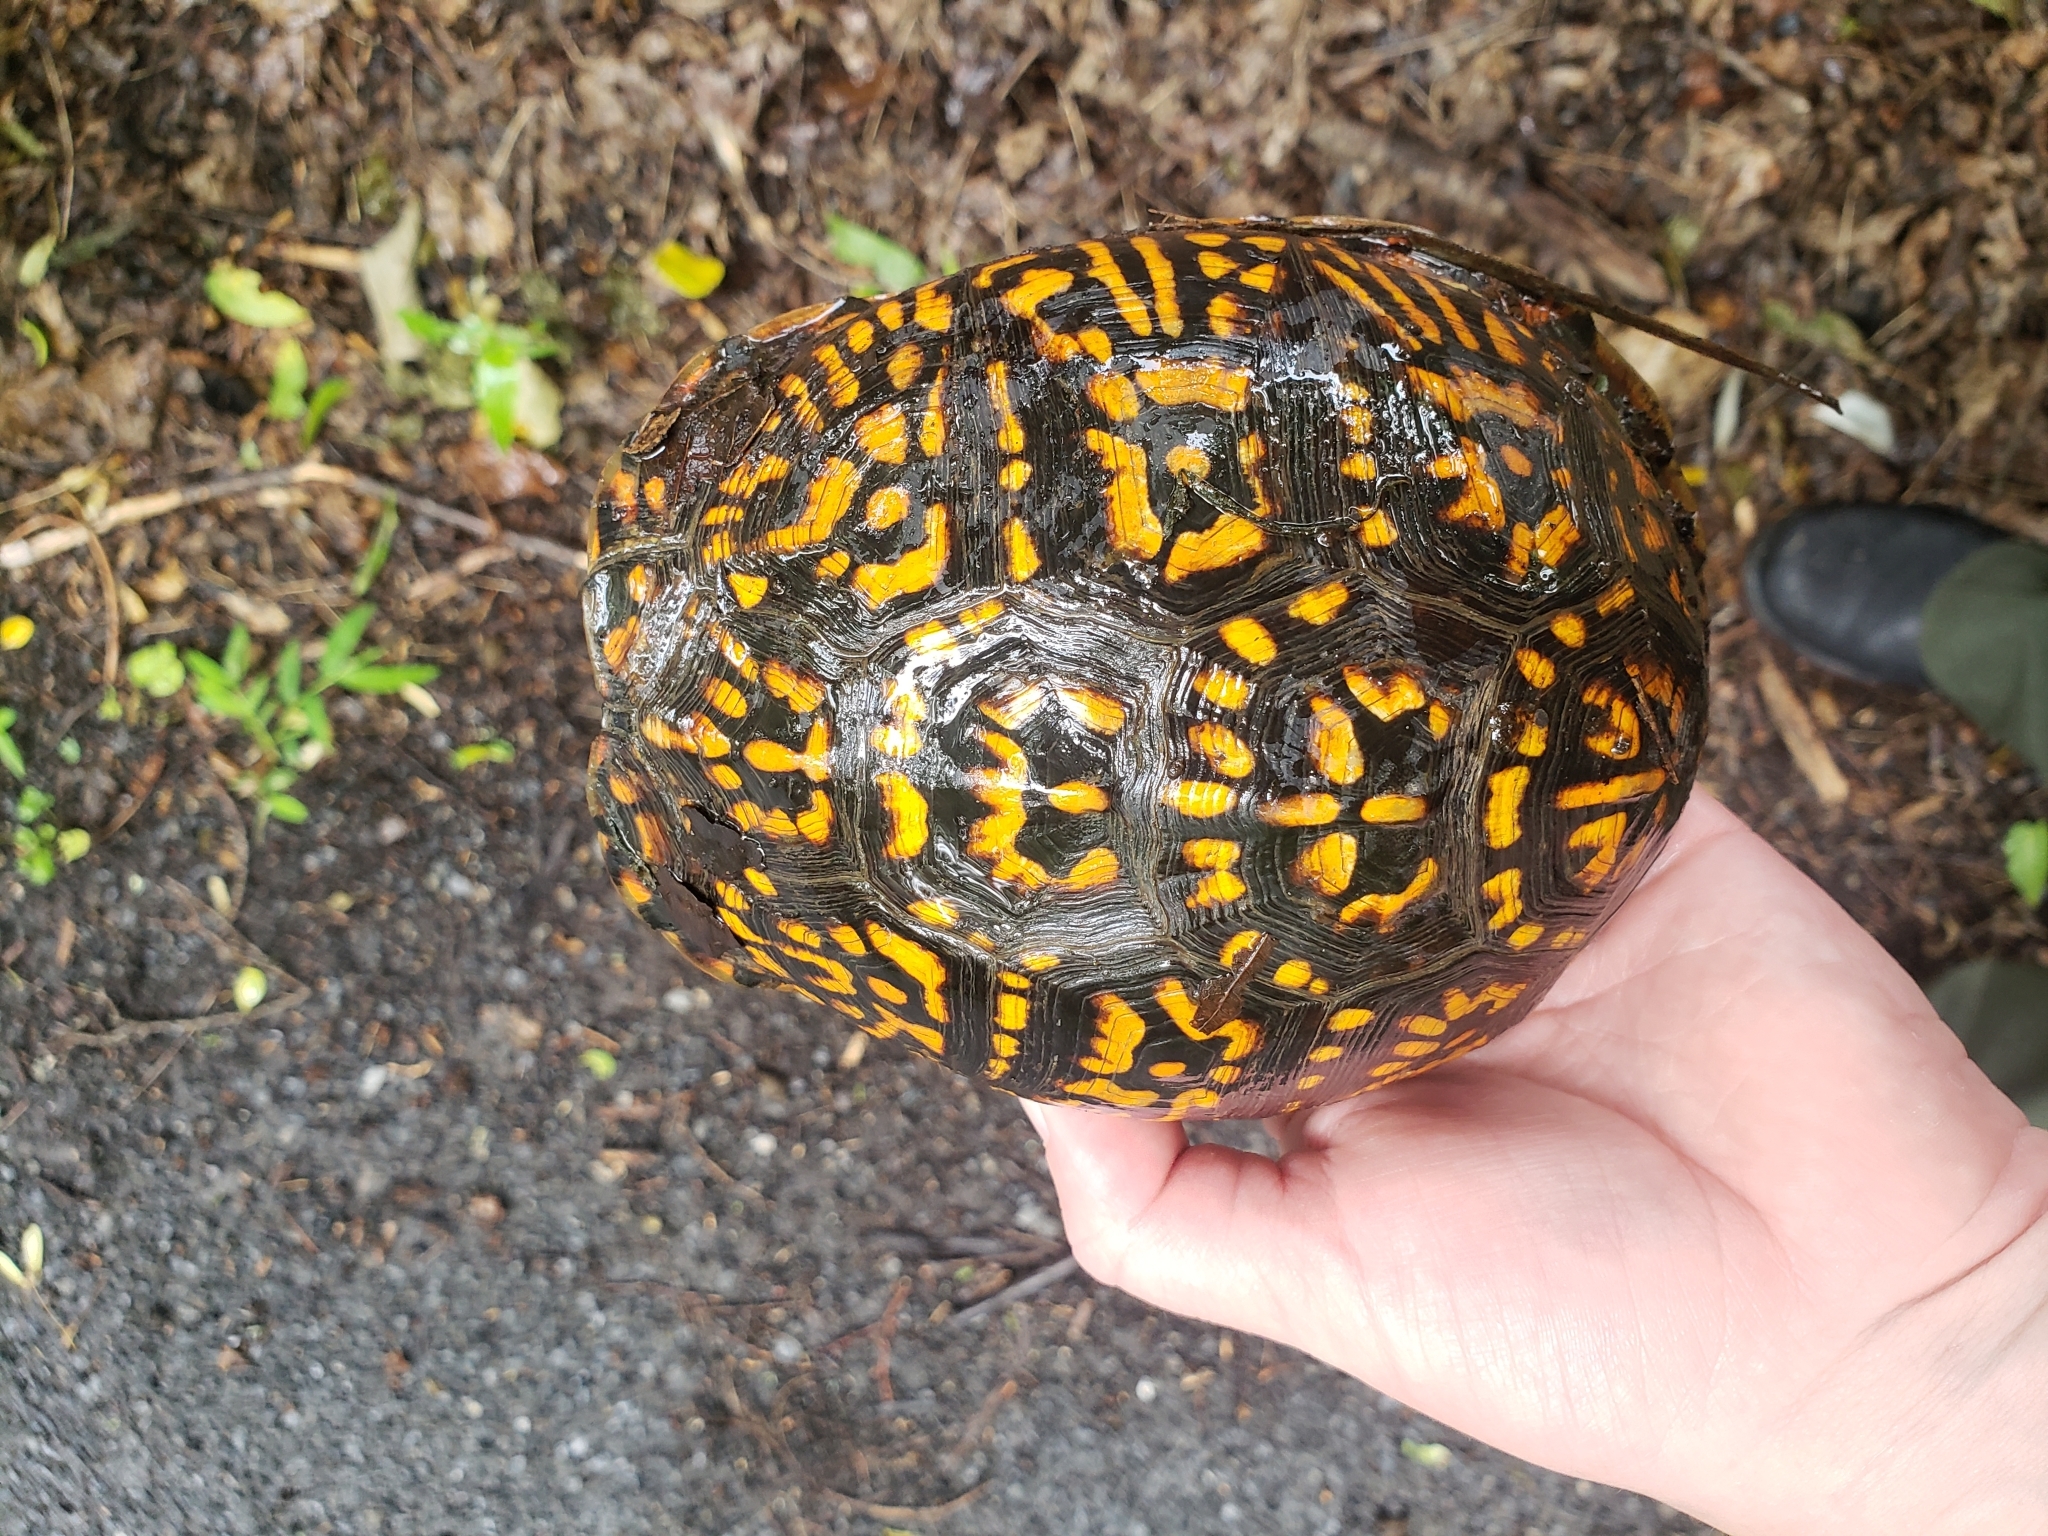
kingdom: Animalia
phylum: Chordata
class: Testudines
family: Emydidae
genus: Terrapene
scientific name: Terrapene carolina
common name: Common box turtle
